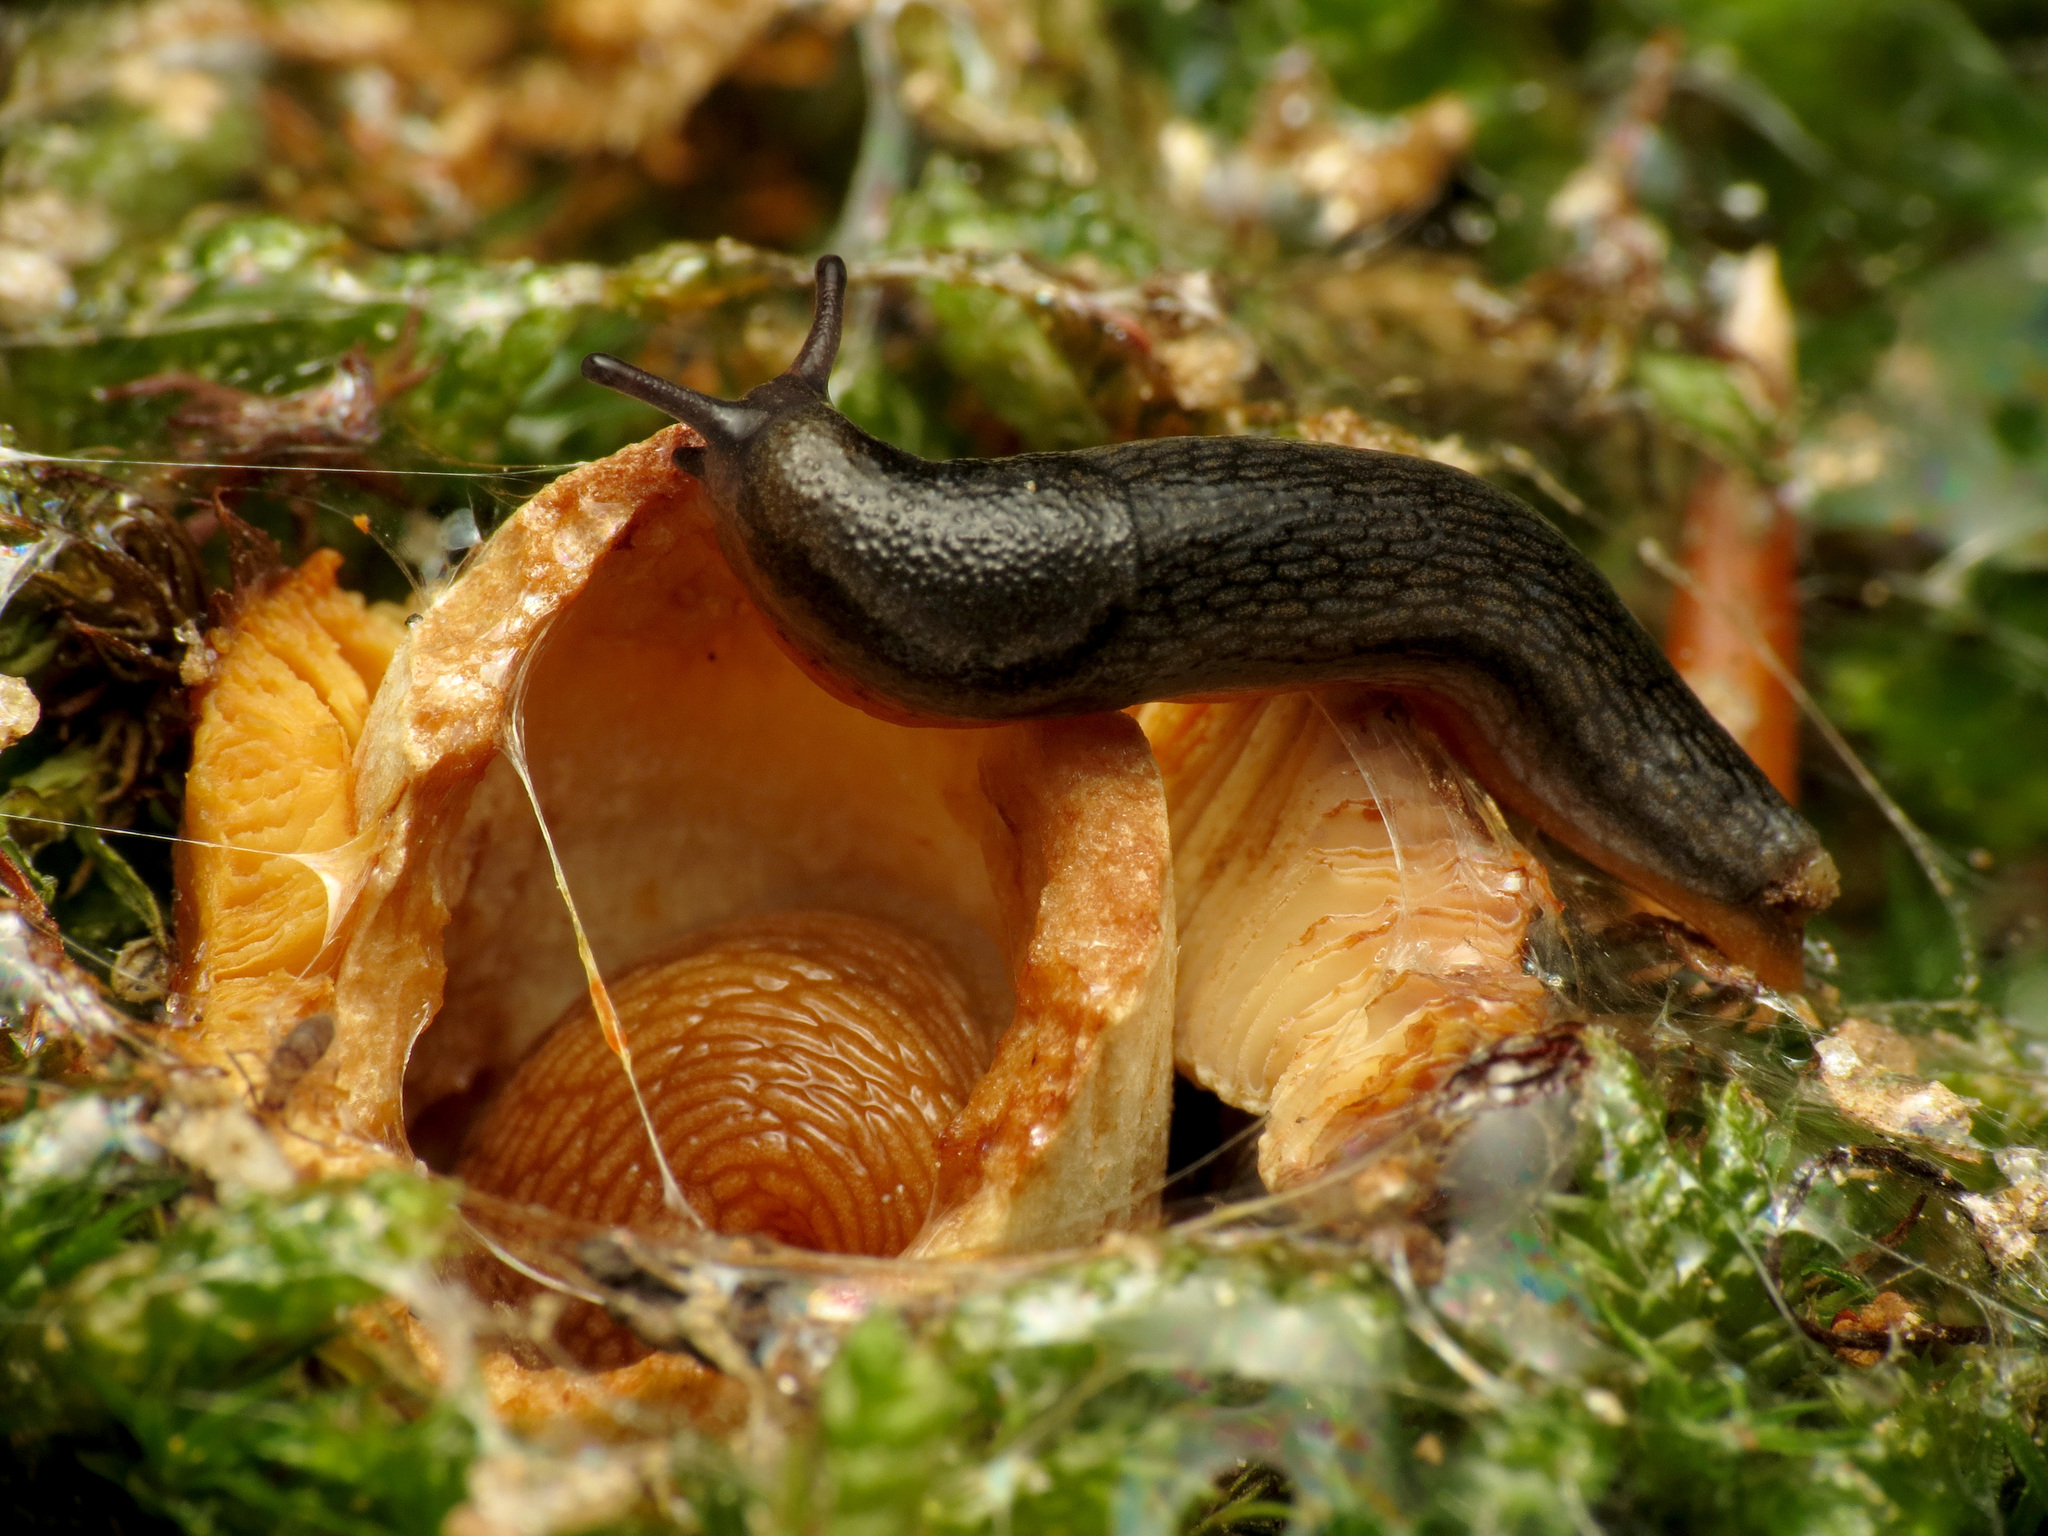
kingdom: Animalia
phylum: Mollusca
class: Gastropoda
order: Stylommatophora
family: Arionidae
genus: Arion
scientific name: Arion hortensis
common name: Garden arion
